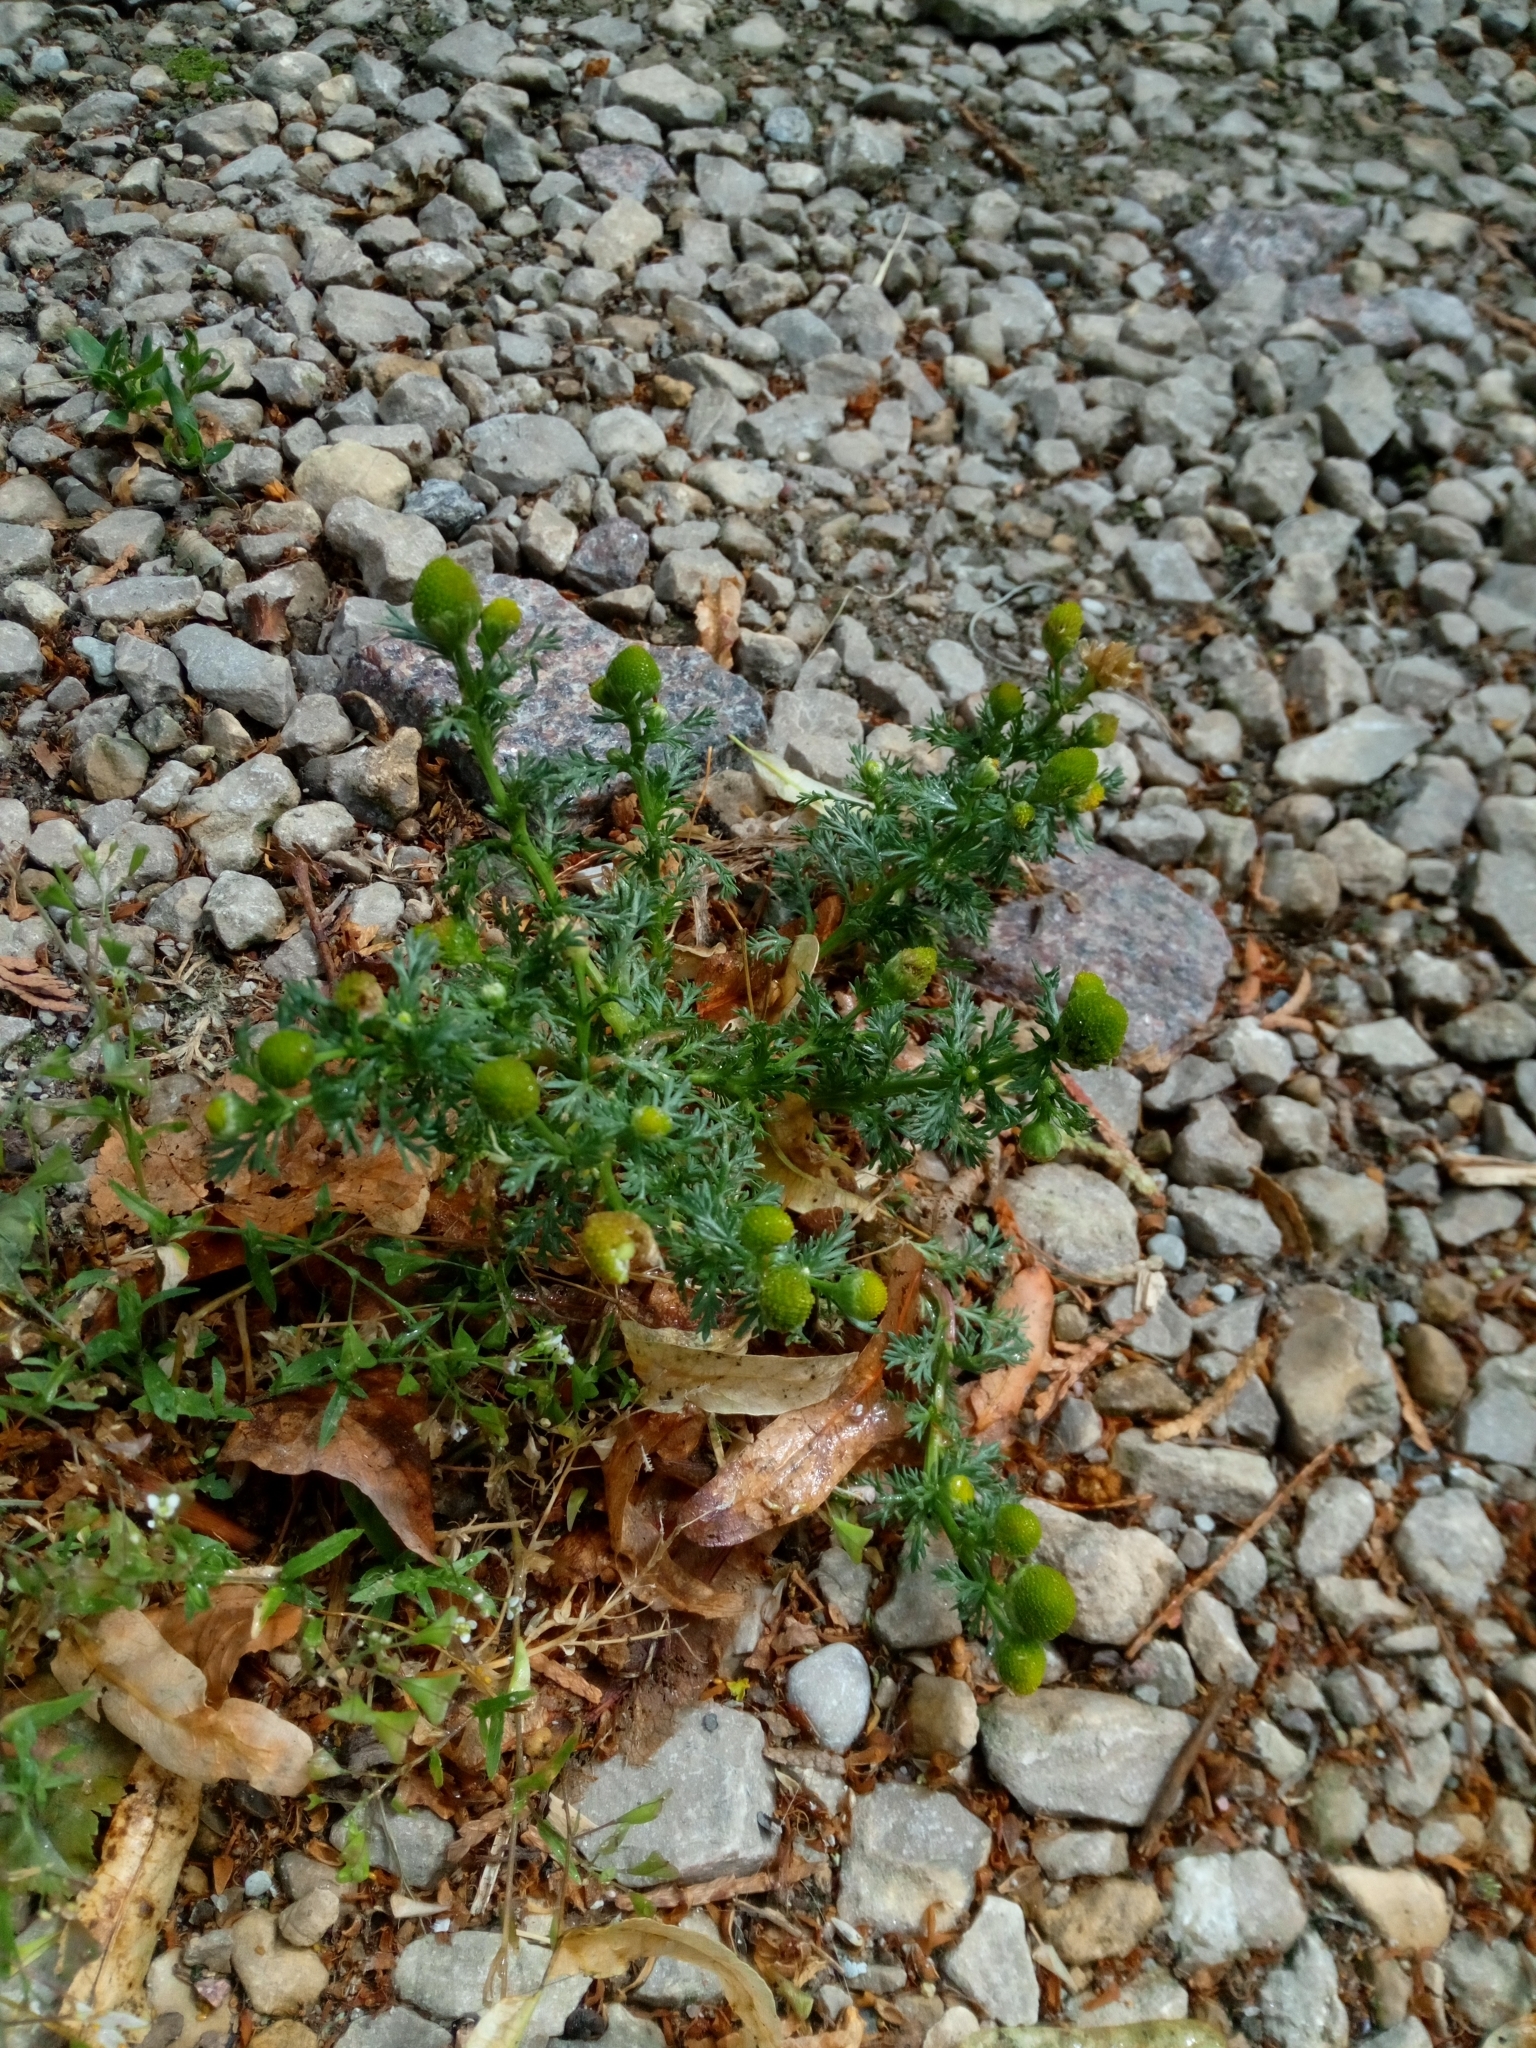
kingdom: Plantae
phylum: Tracheophyta
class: Magnoliopsida
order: Asterales
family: Asteraceae
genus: Matricaria
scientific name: Matricaria discoidea
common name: Disc mayweed
